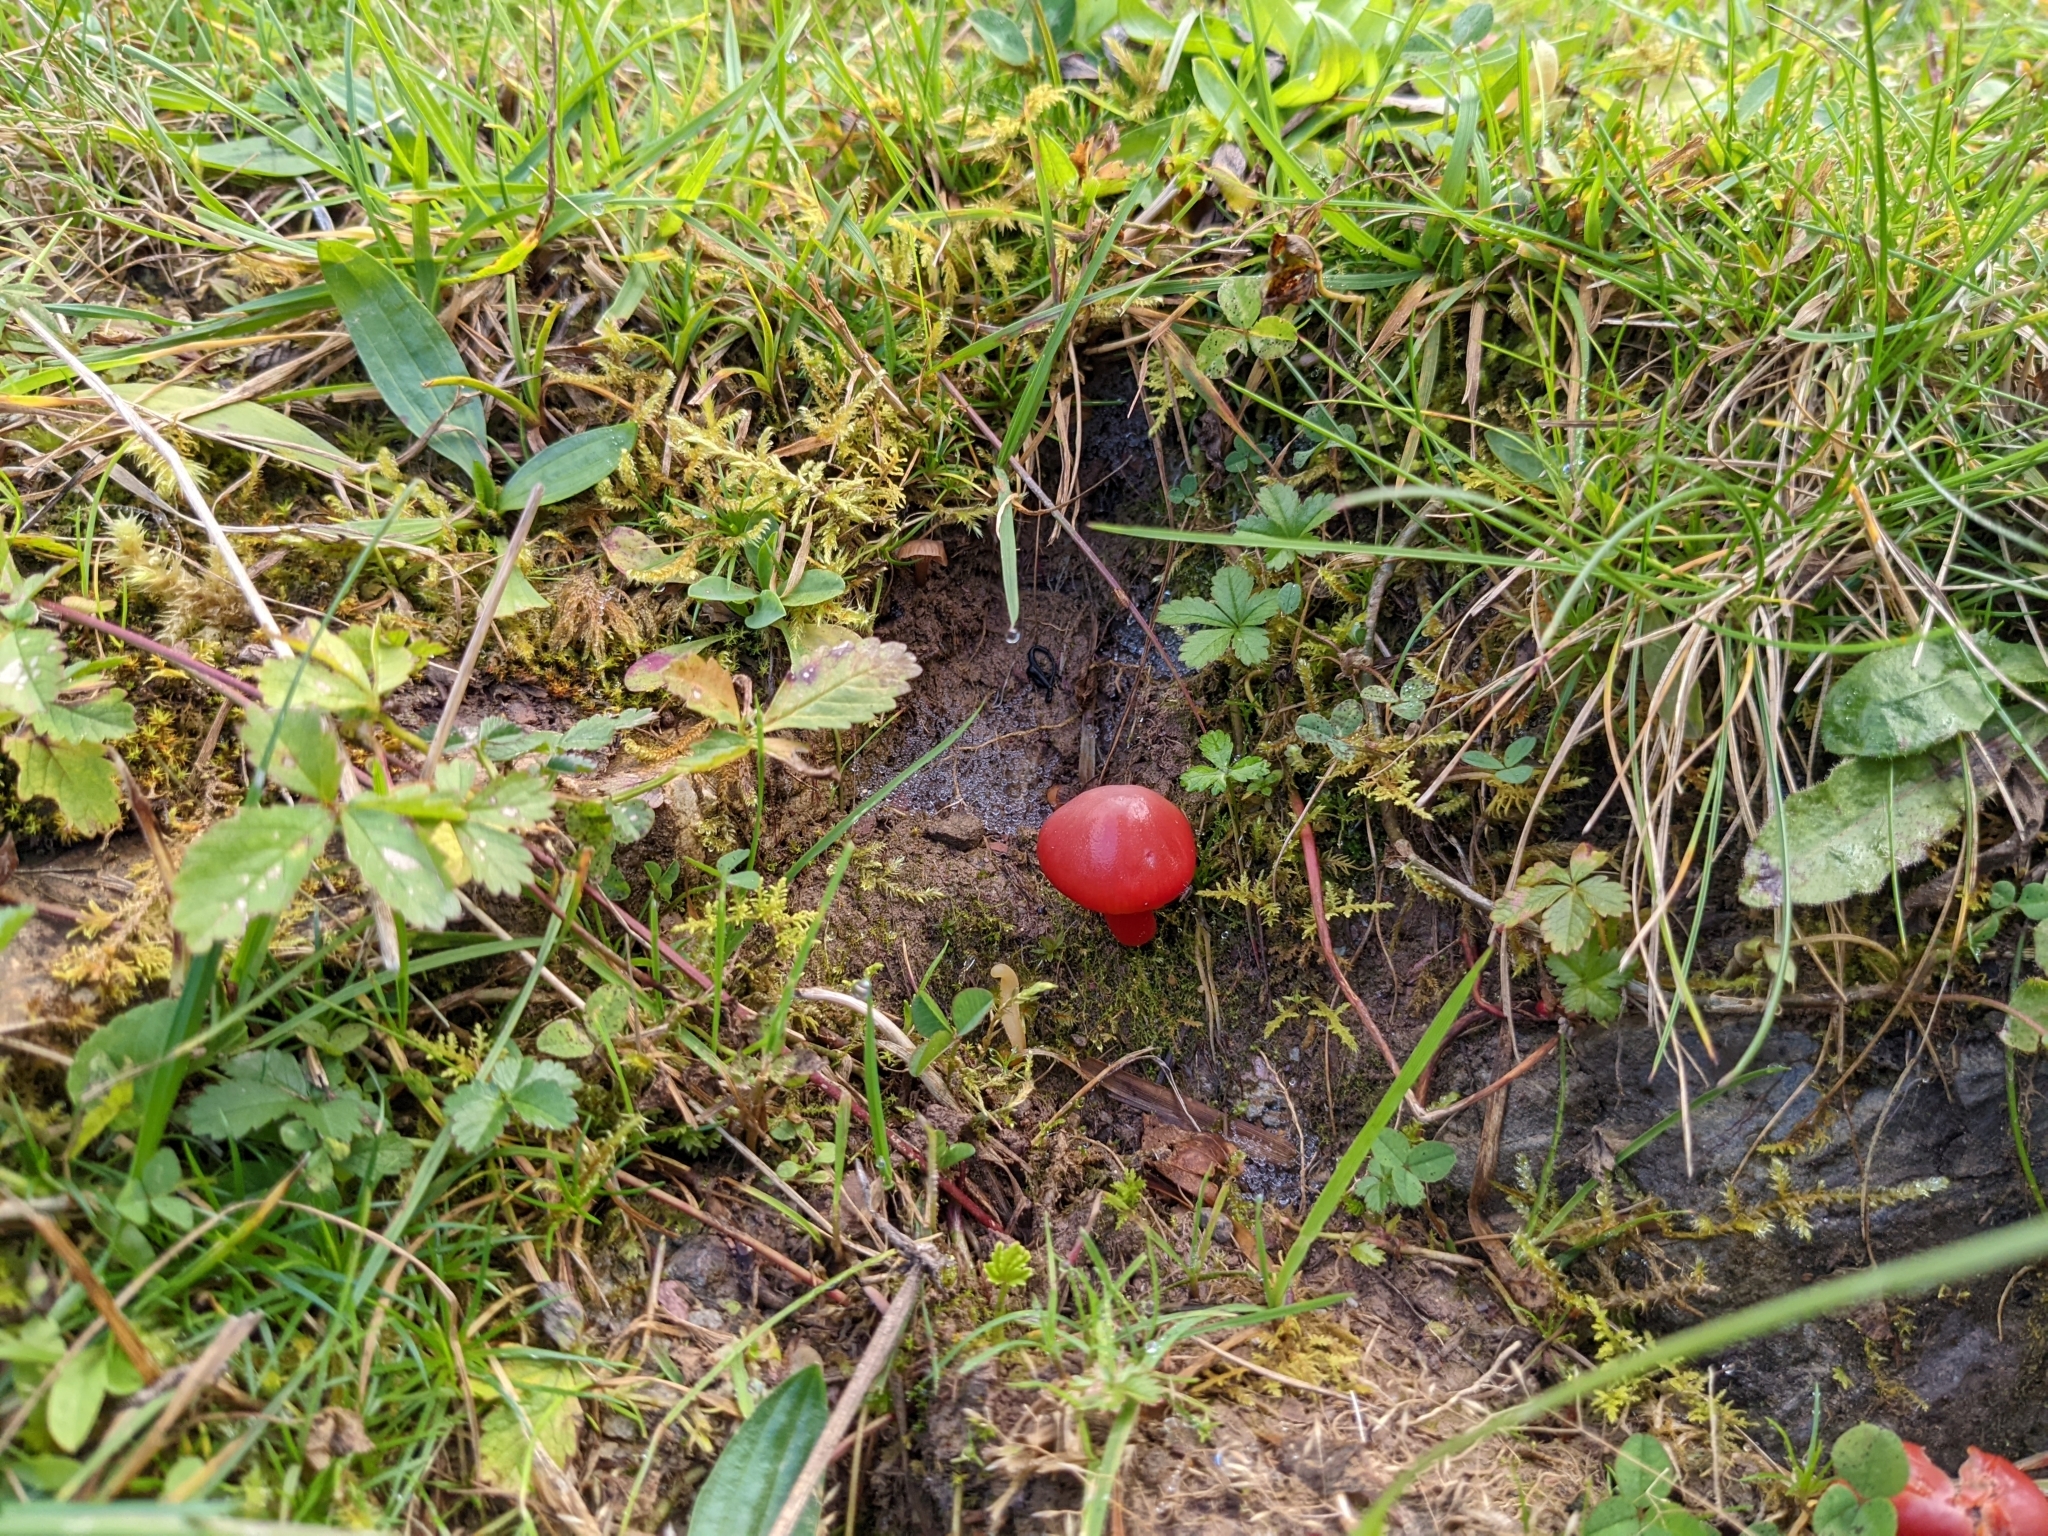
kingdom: Fungi
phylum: Basidiomycota
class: Agaricomycetes
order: Agaricales
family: Hygrophoraceae
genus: Hygrocybe
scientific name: Hygrocybe coccinea
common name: Scarlet hood
